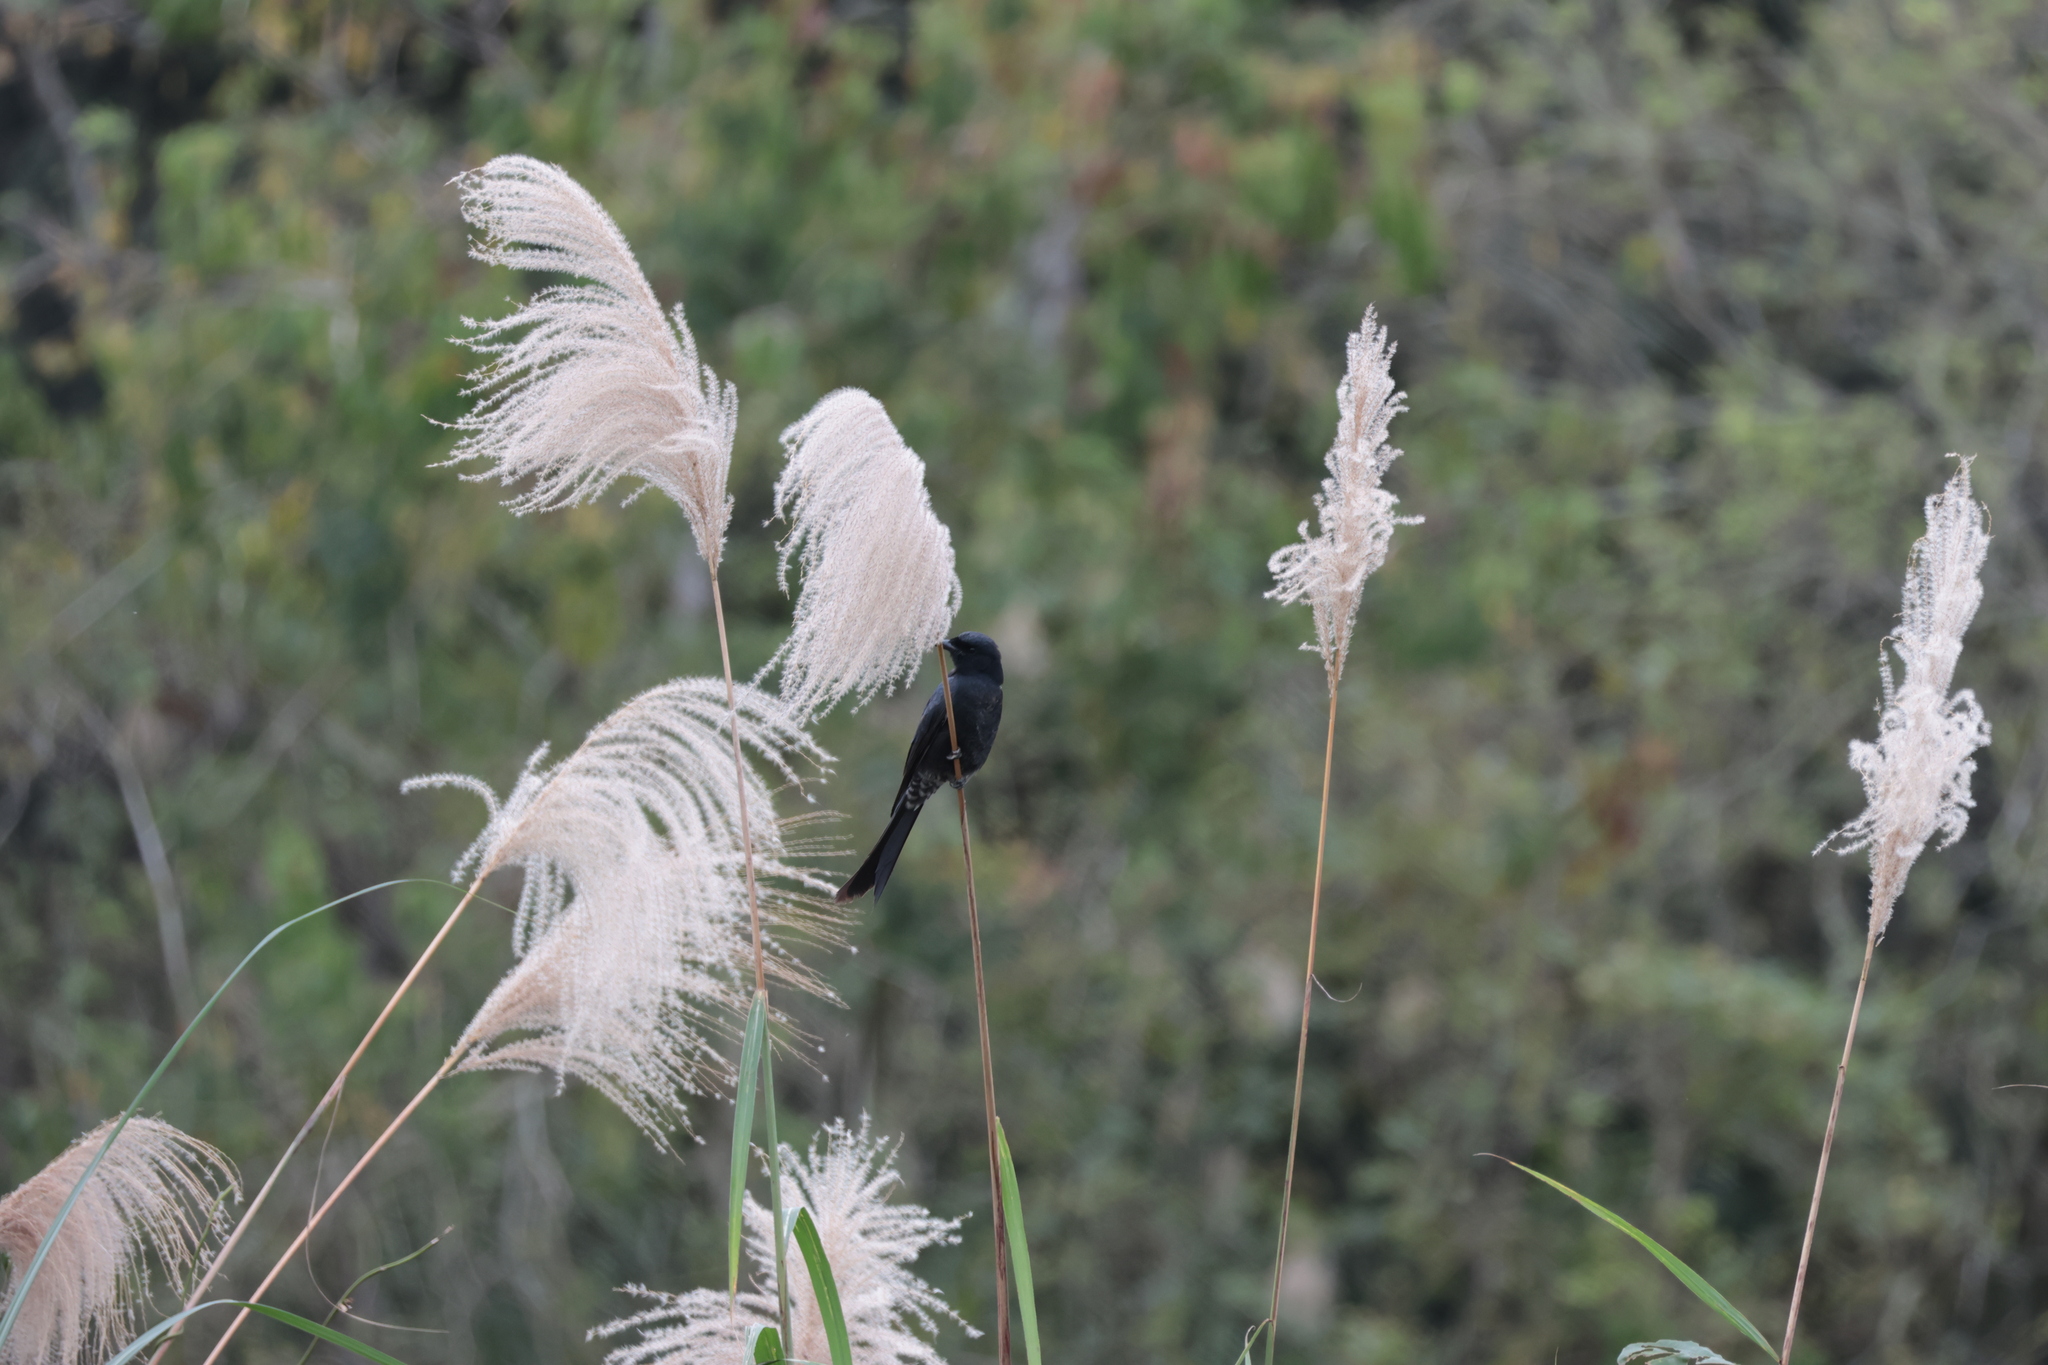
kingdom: Animalia
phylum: Chordata
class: Aves
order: Passeriformes
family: Dicruridae
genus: Dicrurus
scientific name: Dicrurus macrocercus
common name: Black drongo
